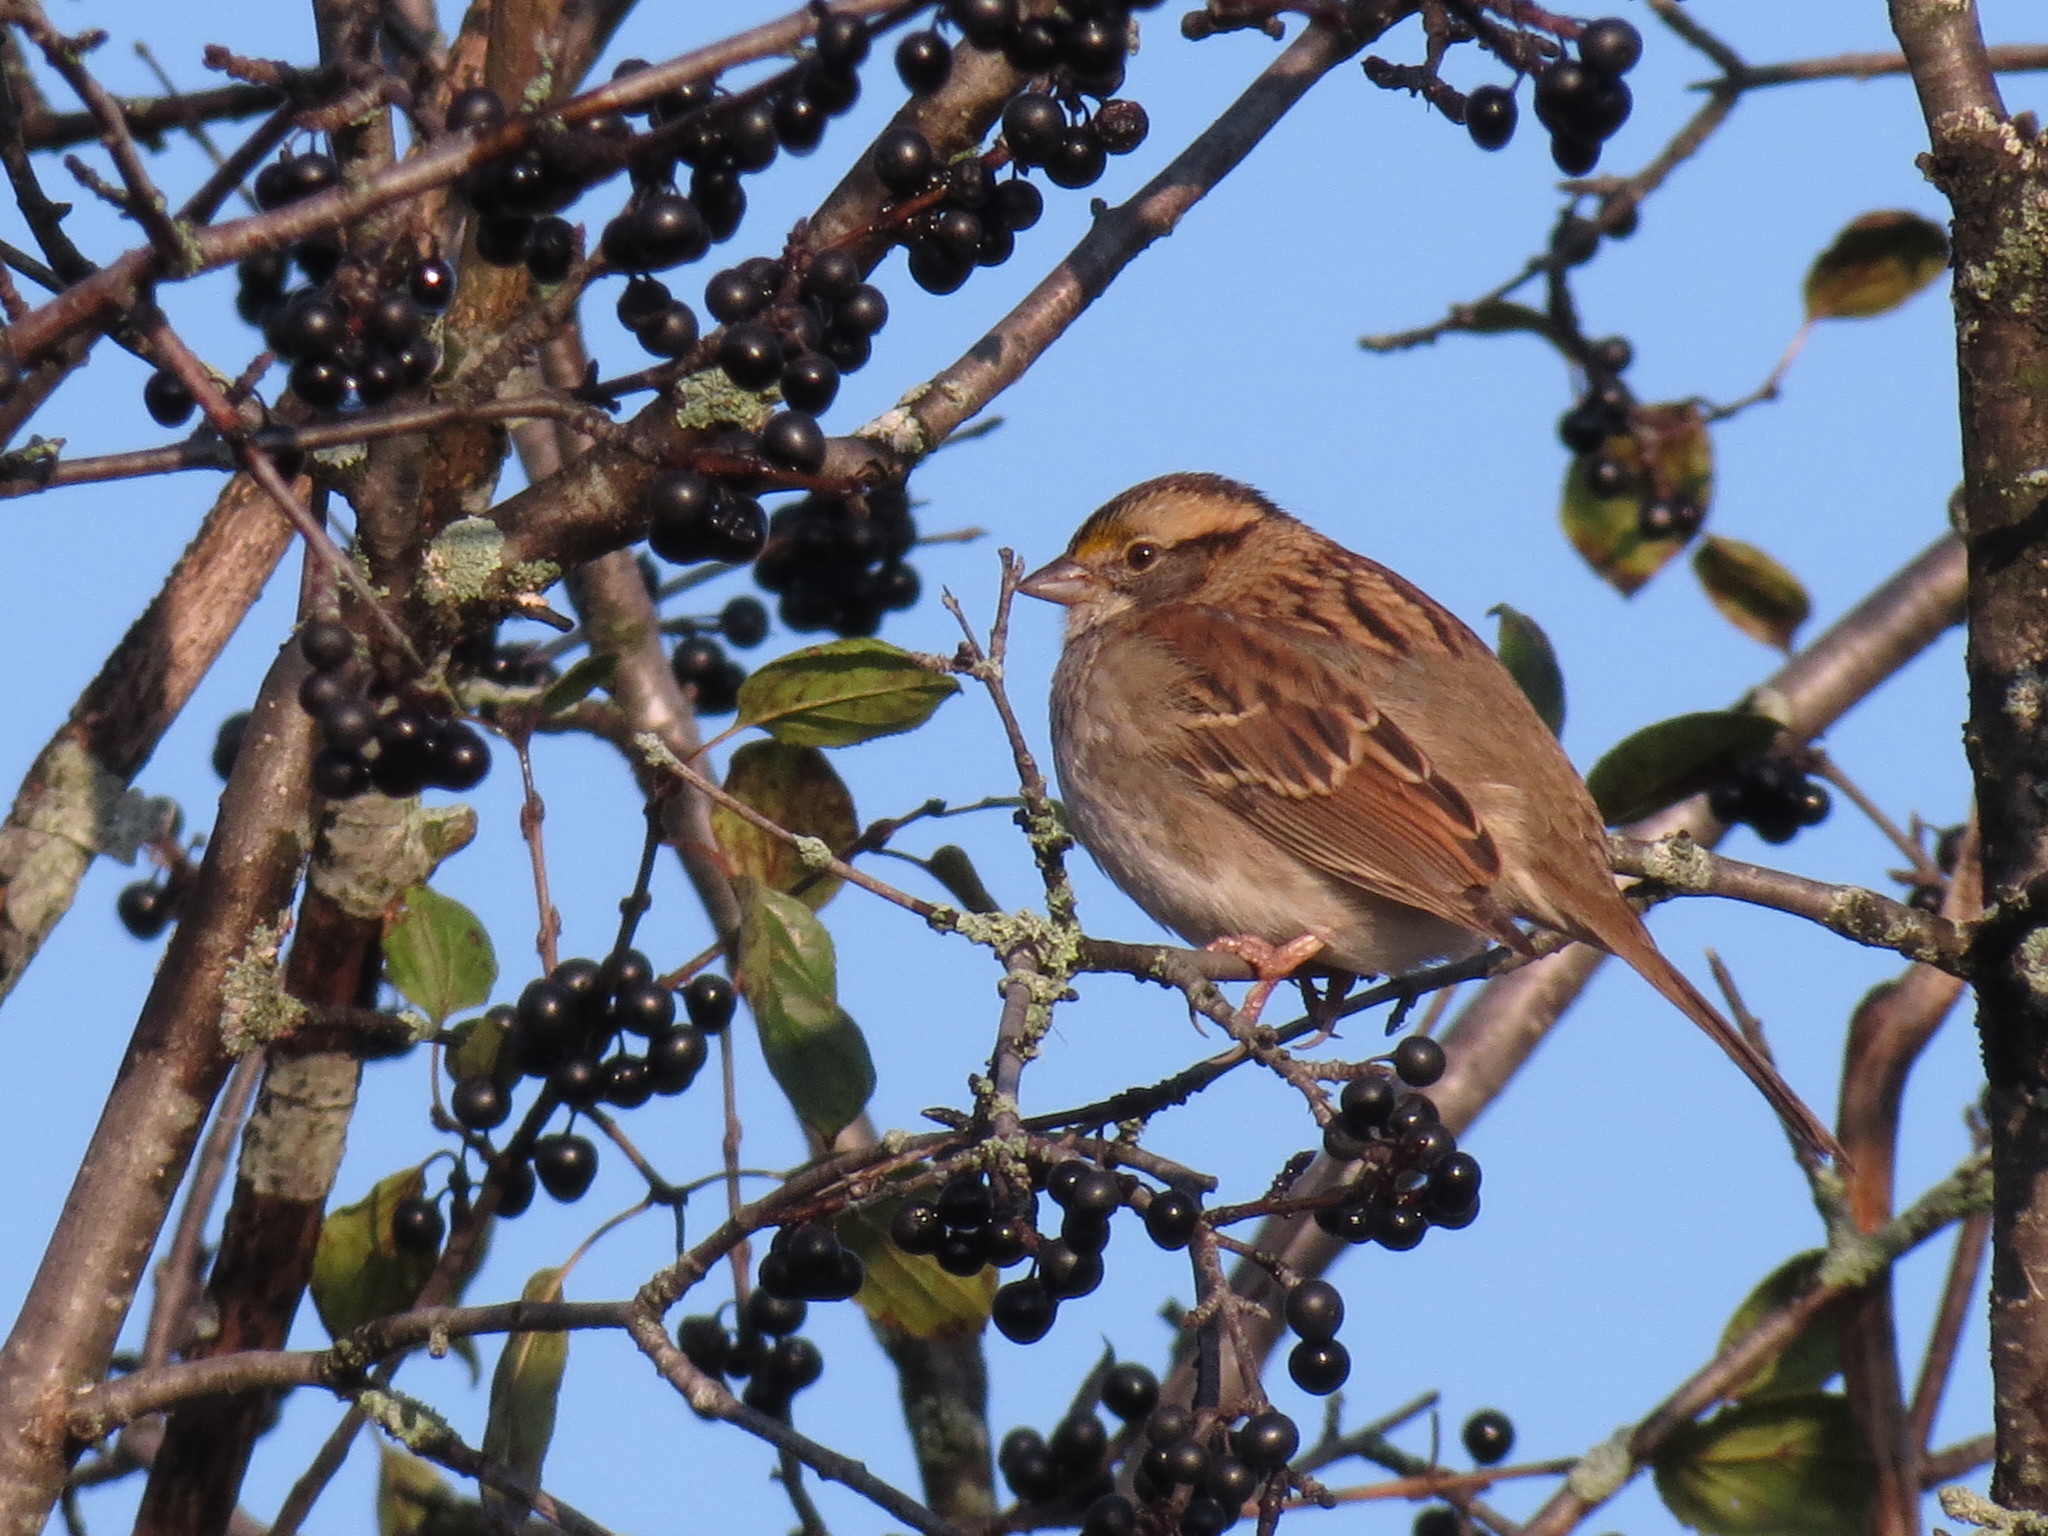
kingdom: Animalia
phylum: Chordata
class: Aves
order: Passeriformes
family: Passerellidae
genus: Zonotrichia
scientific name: Zonotrichia albicollis
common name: White-throated sparrow
